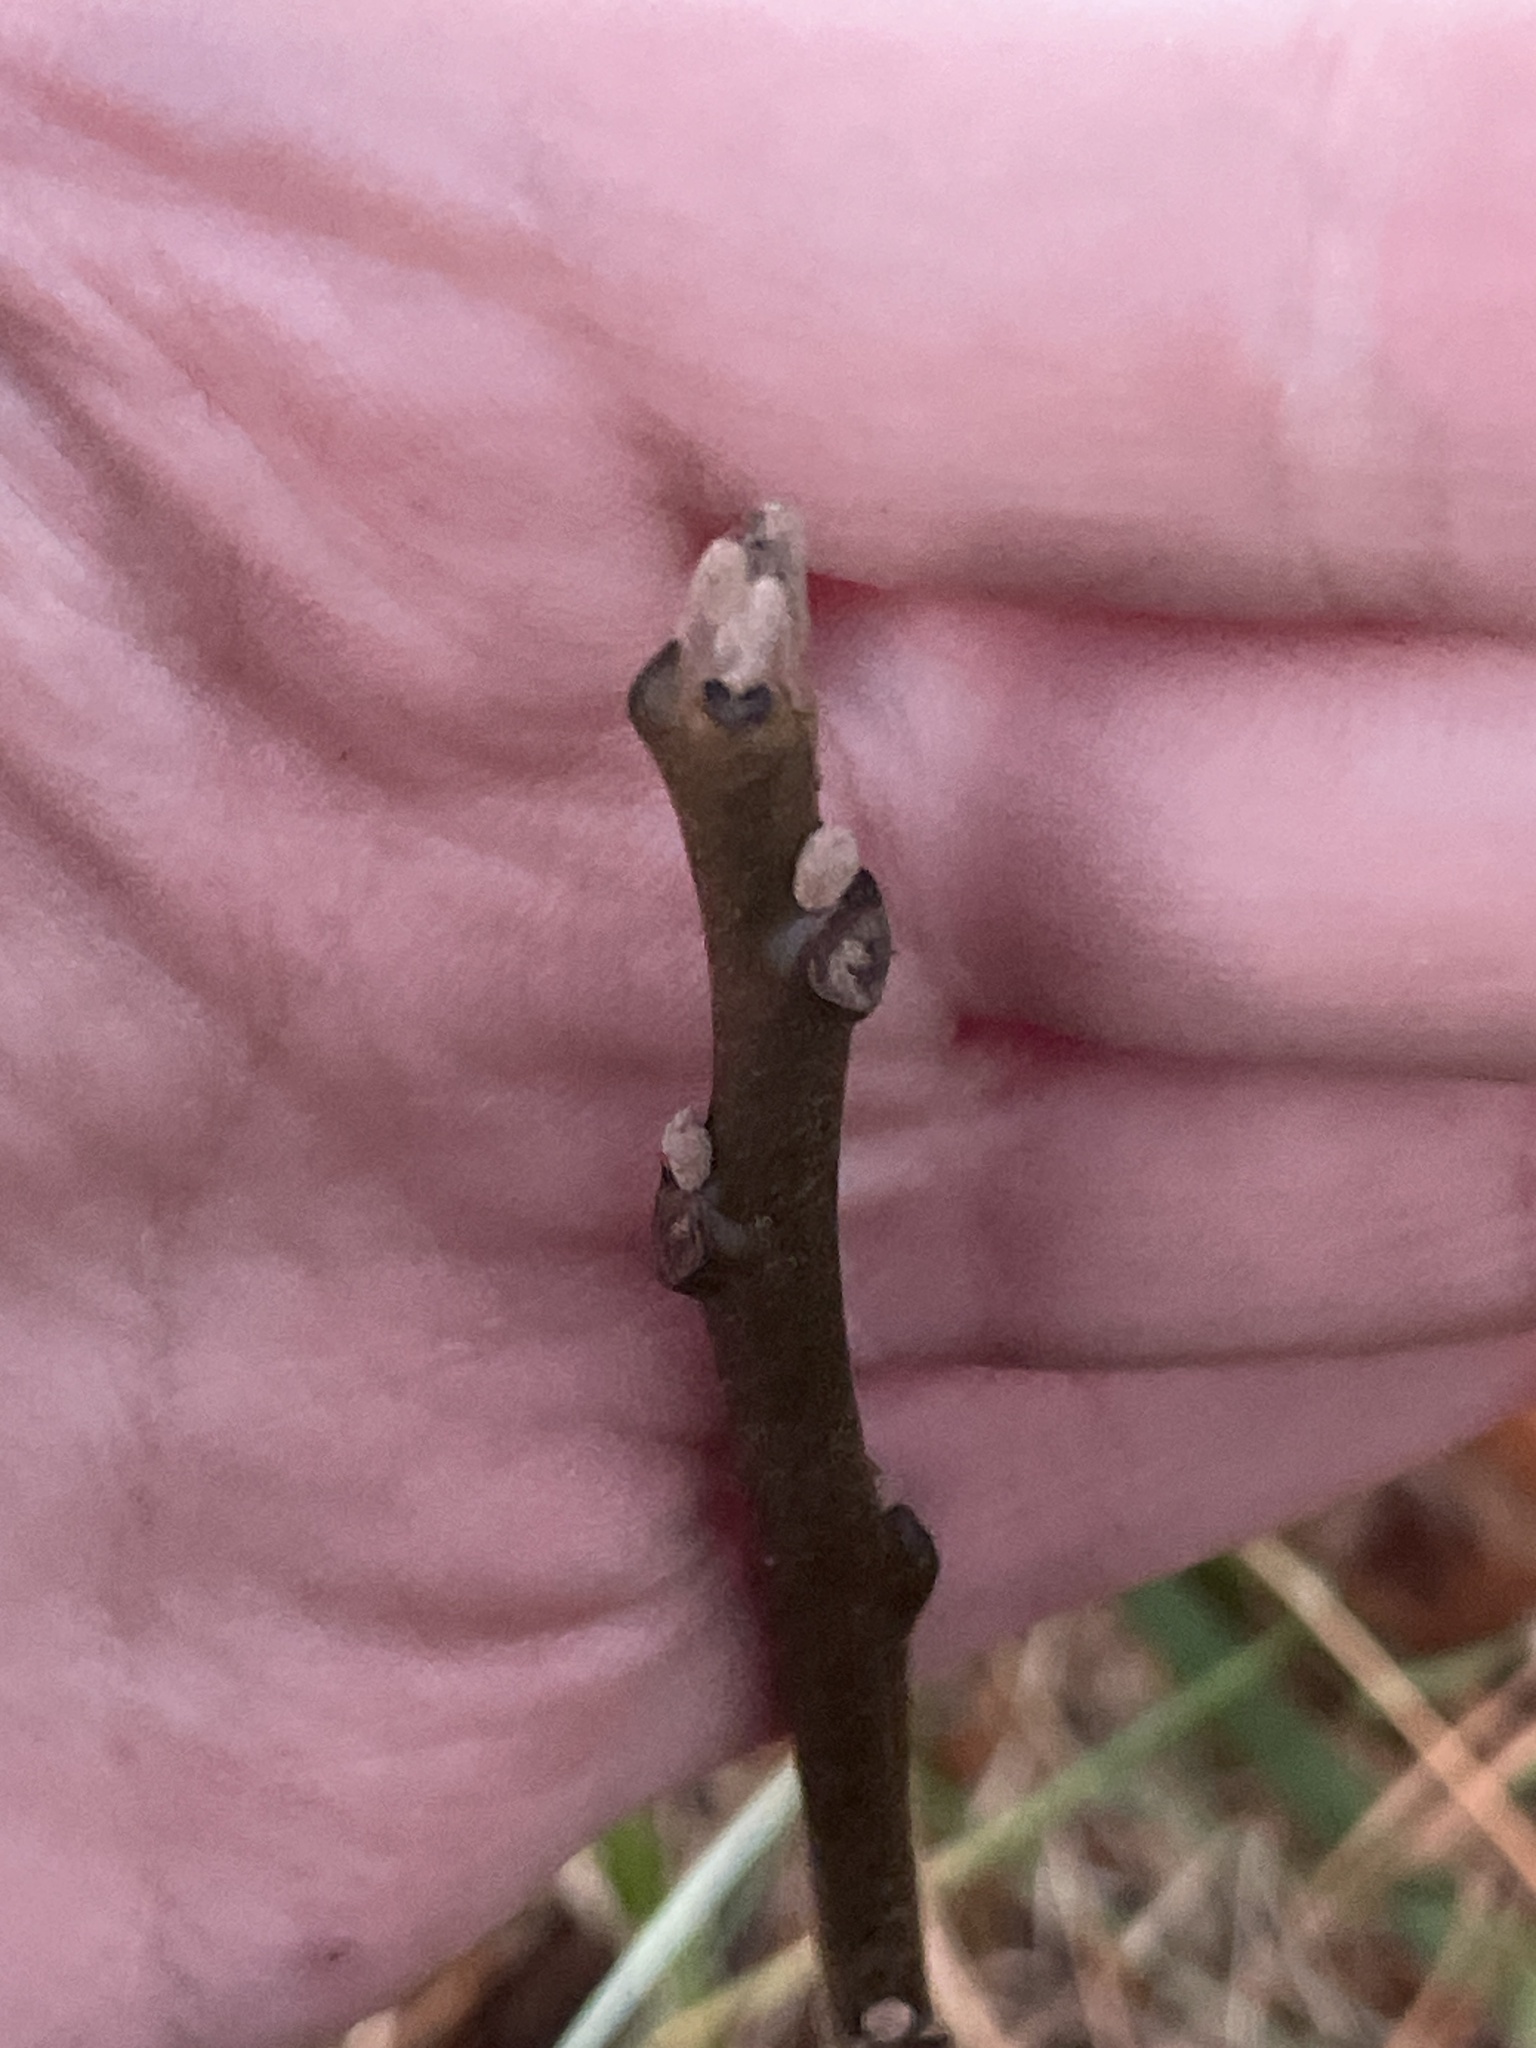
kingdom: Plantae
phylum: Tracheophyta
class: Magnoliopsida
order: Fagales
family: Juglandaceae
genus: Juglans
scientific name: Juglans nigra
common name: Black walnut
